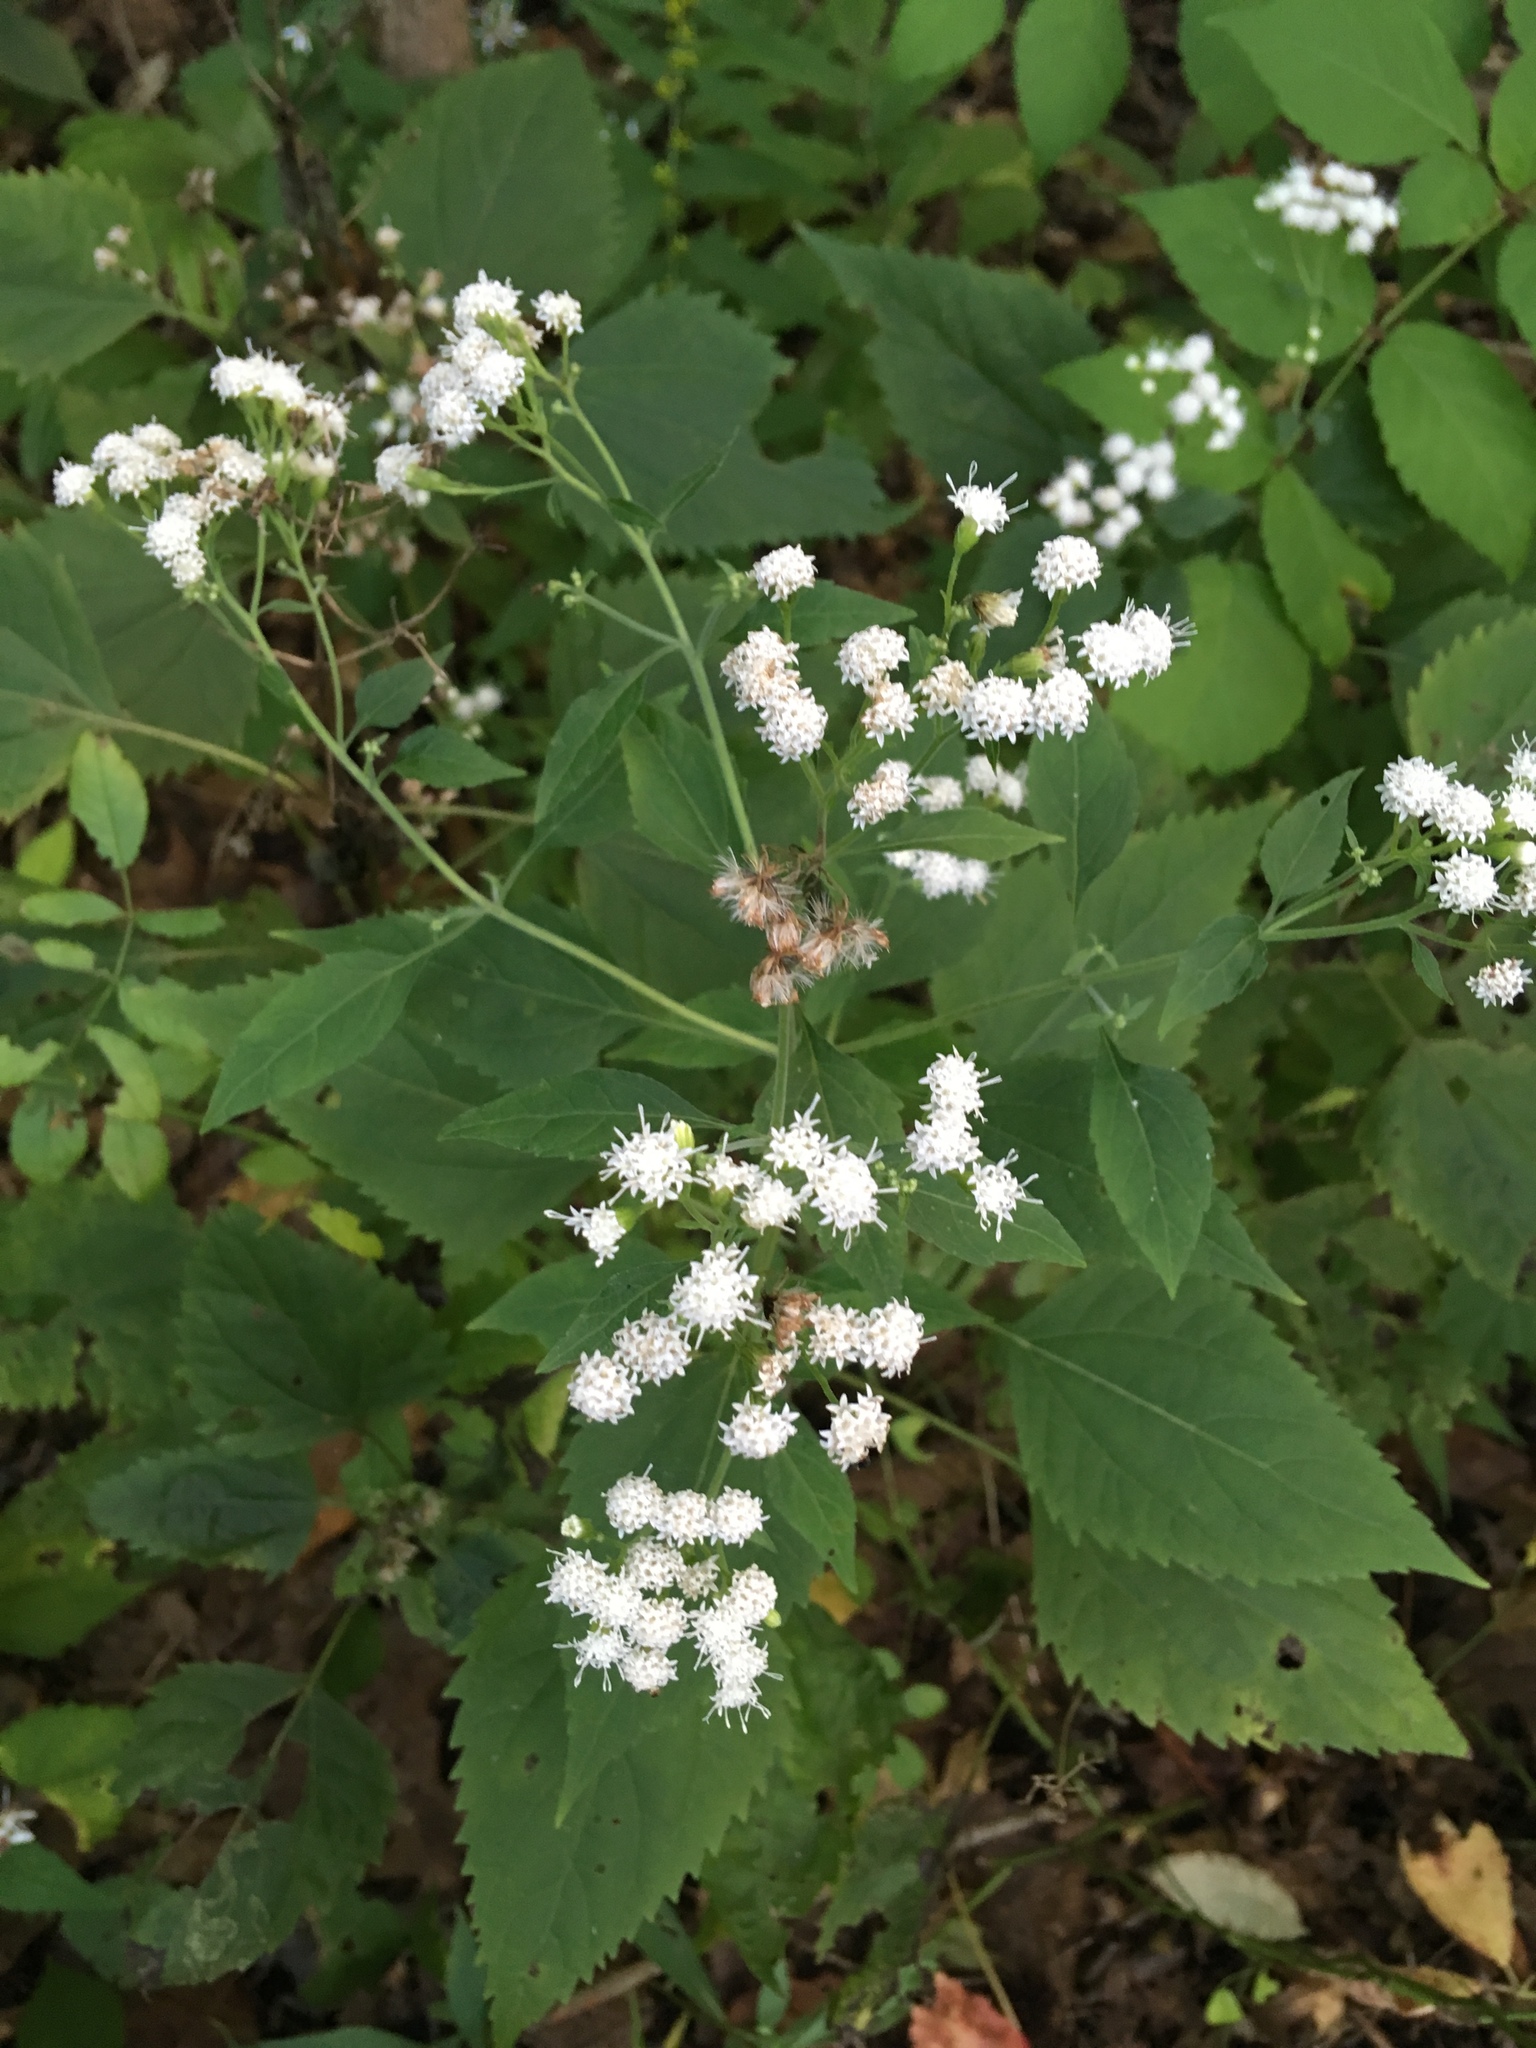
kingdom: Plantae
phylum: Tracheophyta
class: Magnoliopsida
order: Asterales
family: Asteraceae
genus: Ageratina
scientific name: Ageratina altissima
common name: White snakeroot
